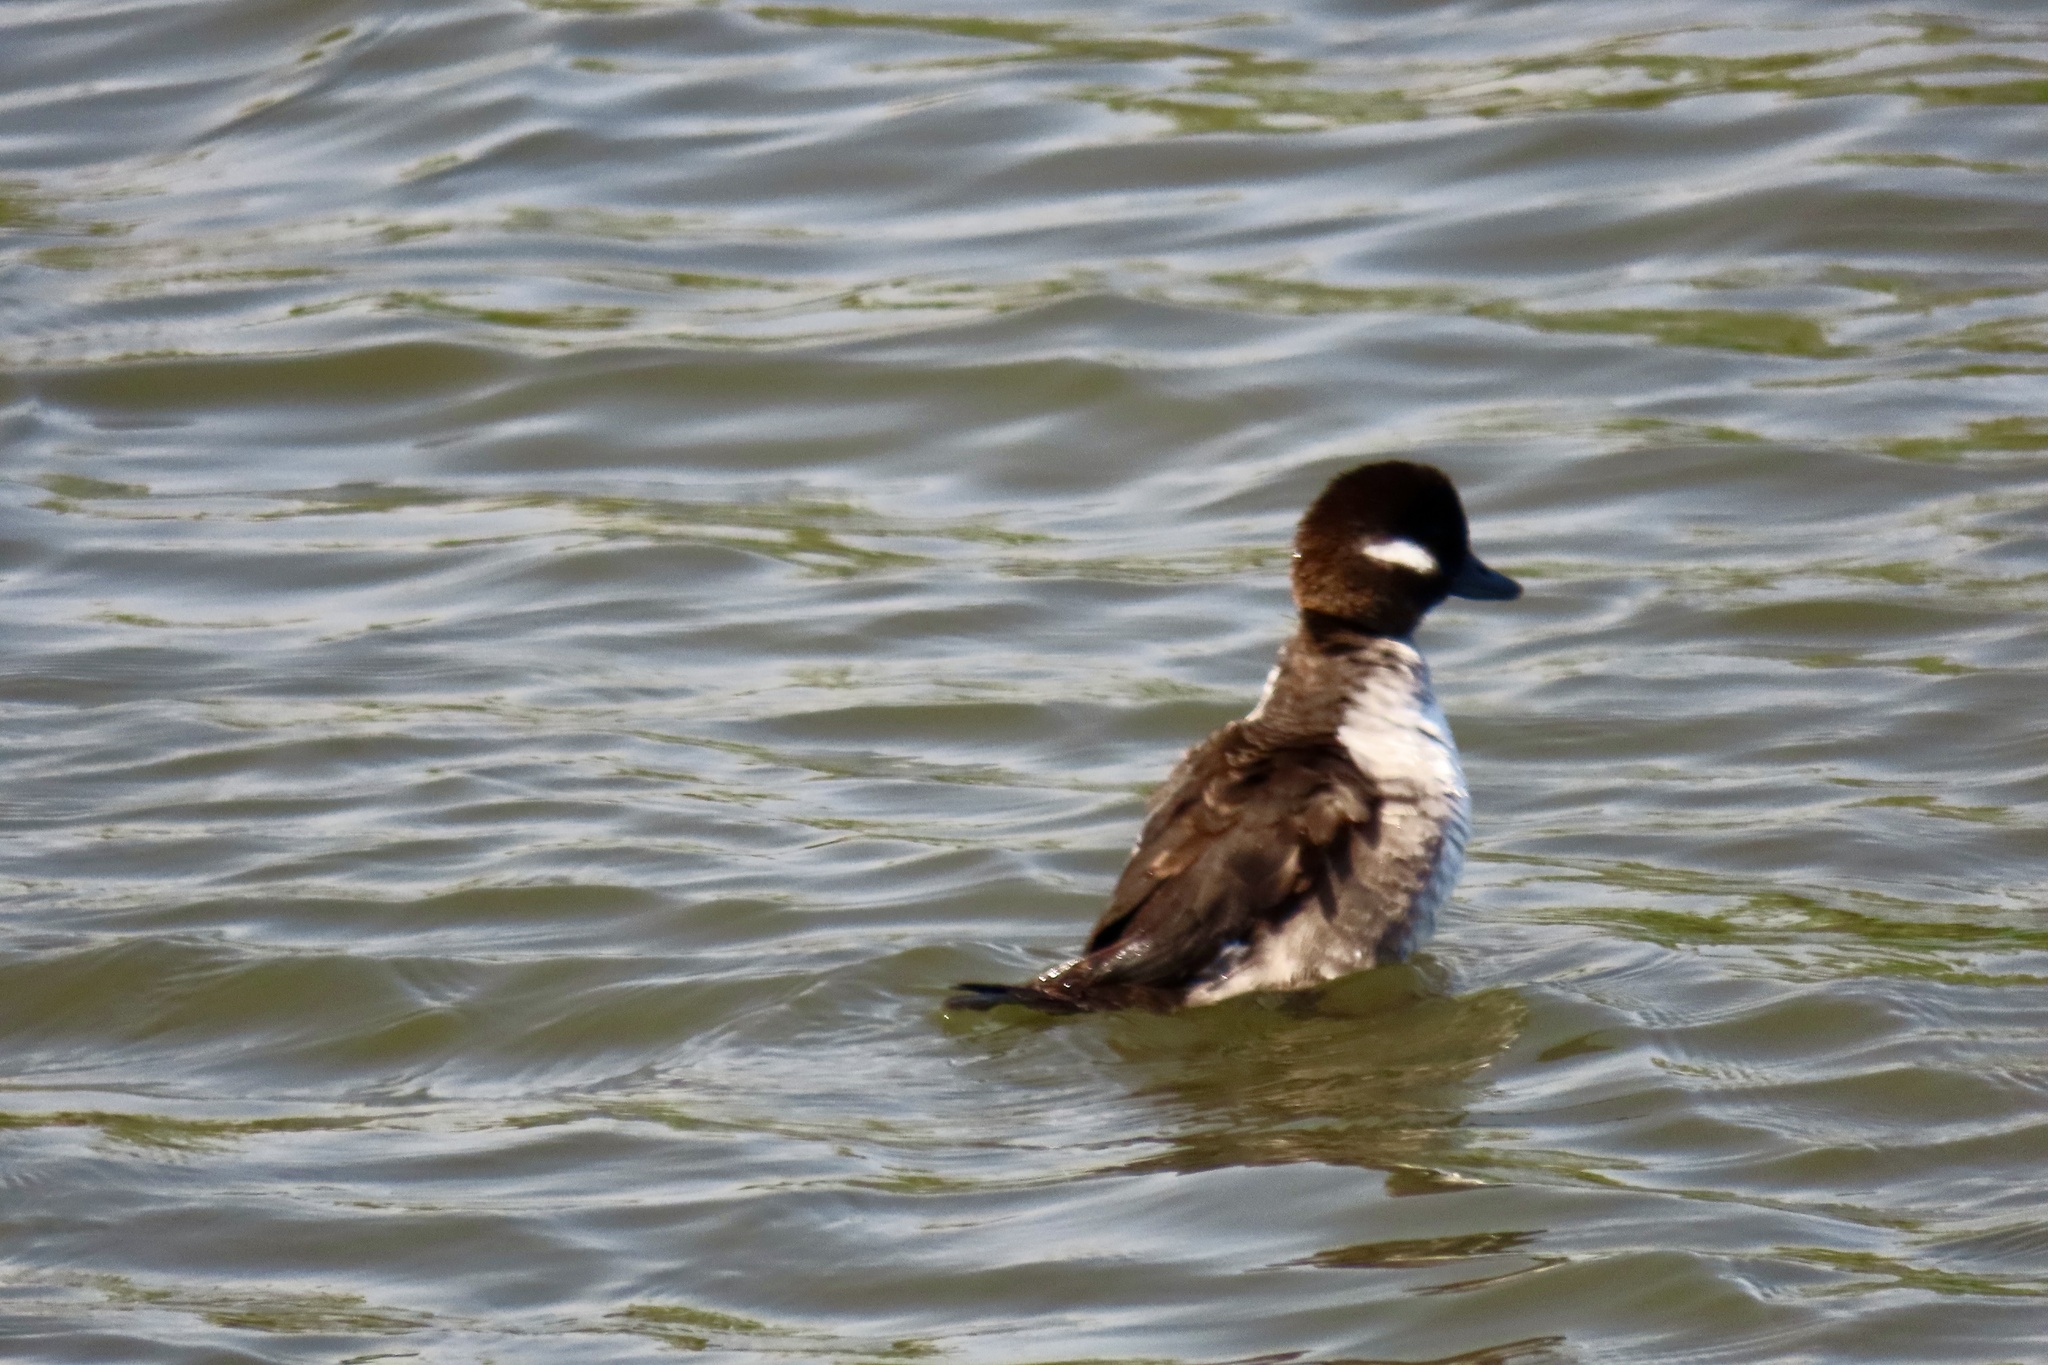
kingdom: Animalia
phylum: Chordata
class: Aves
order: Anseriformes
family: Anatidae
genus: Bucephala
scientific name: Bucephala albeola
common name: Bufflehead
